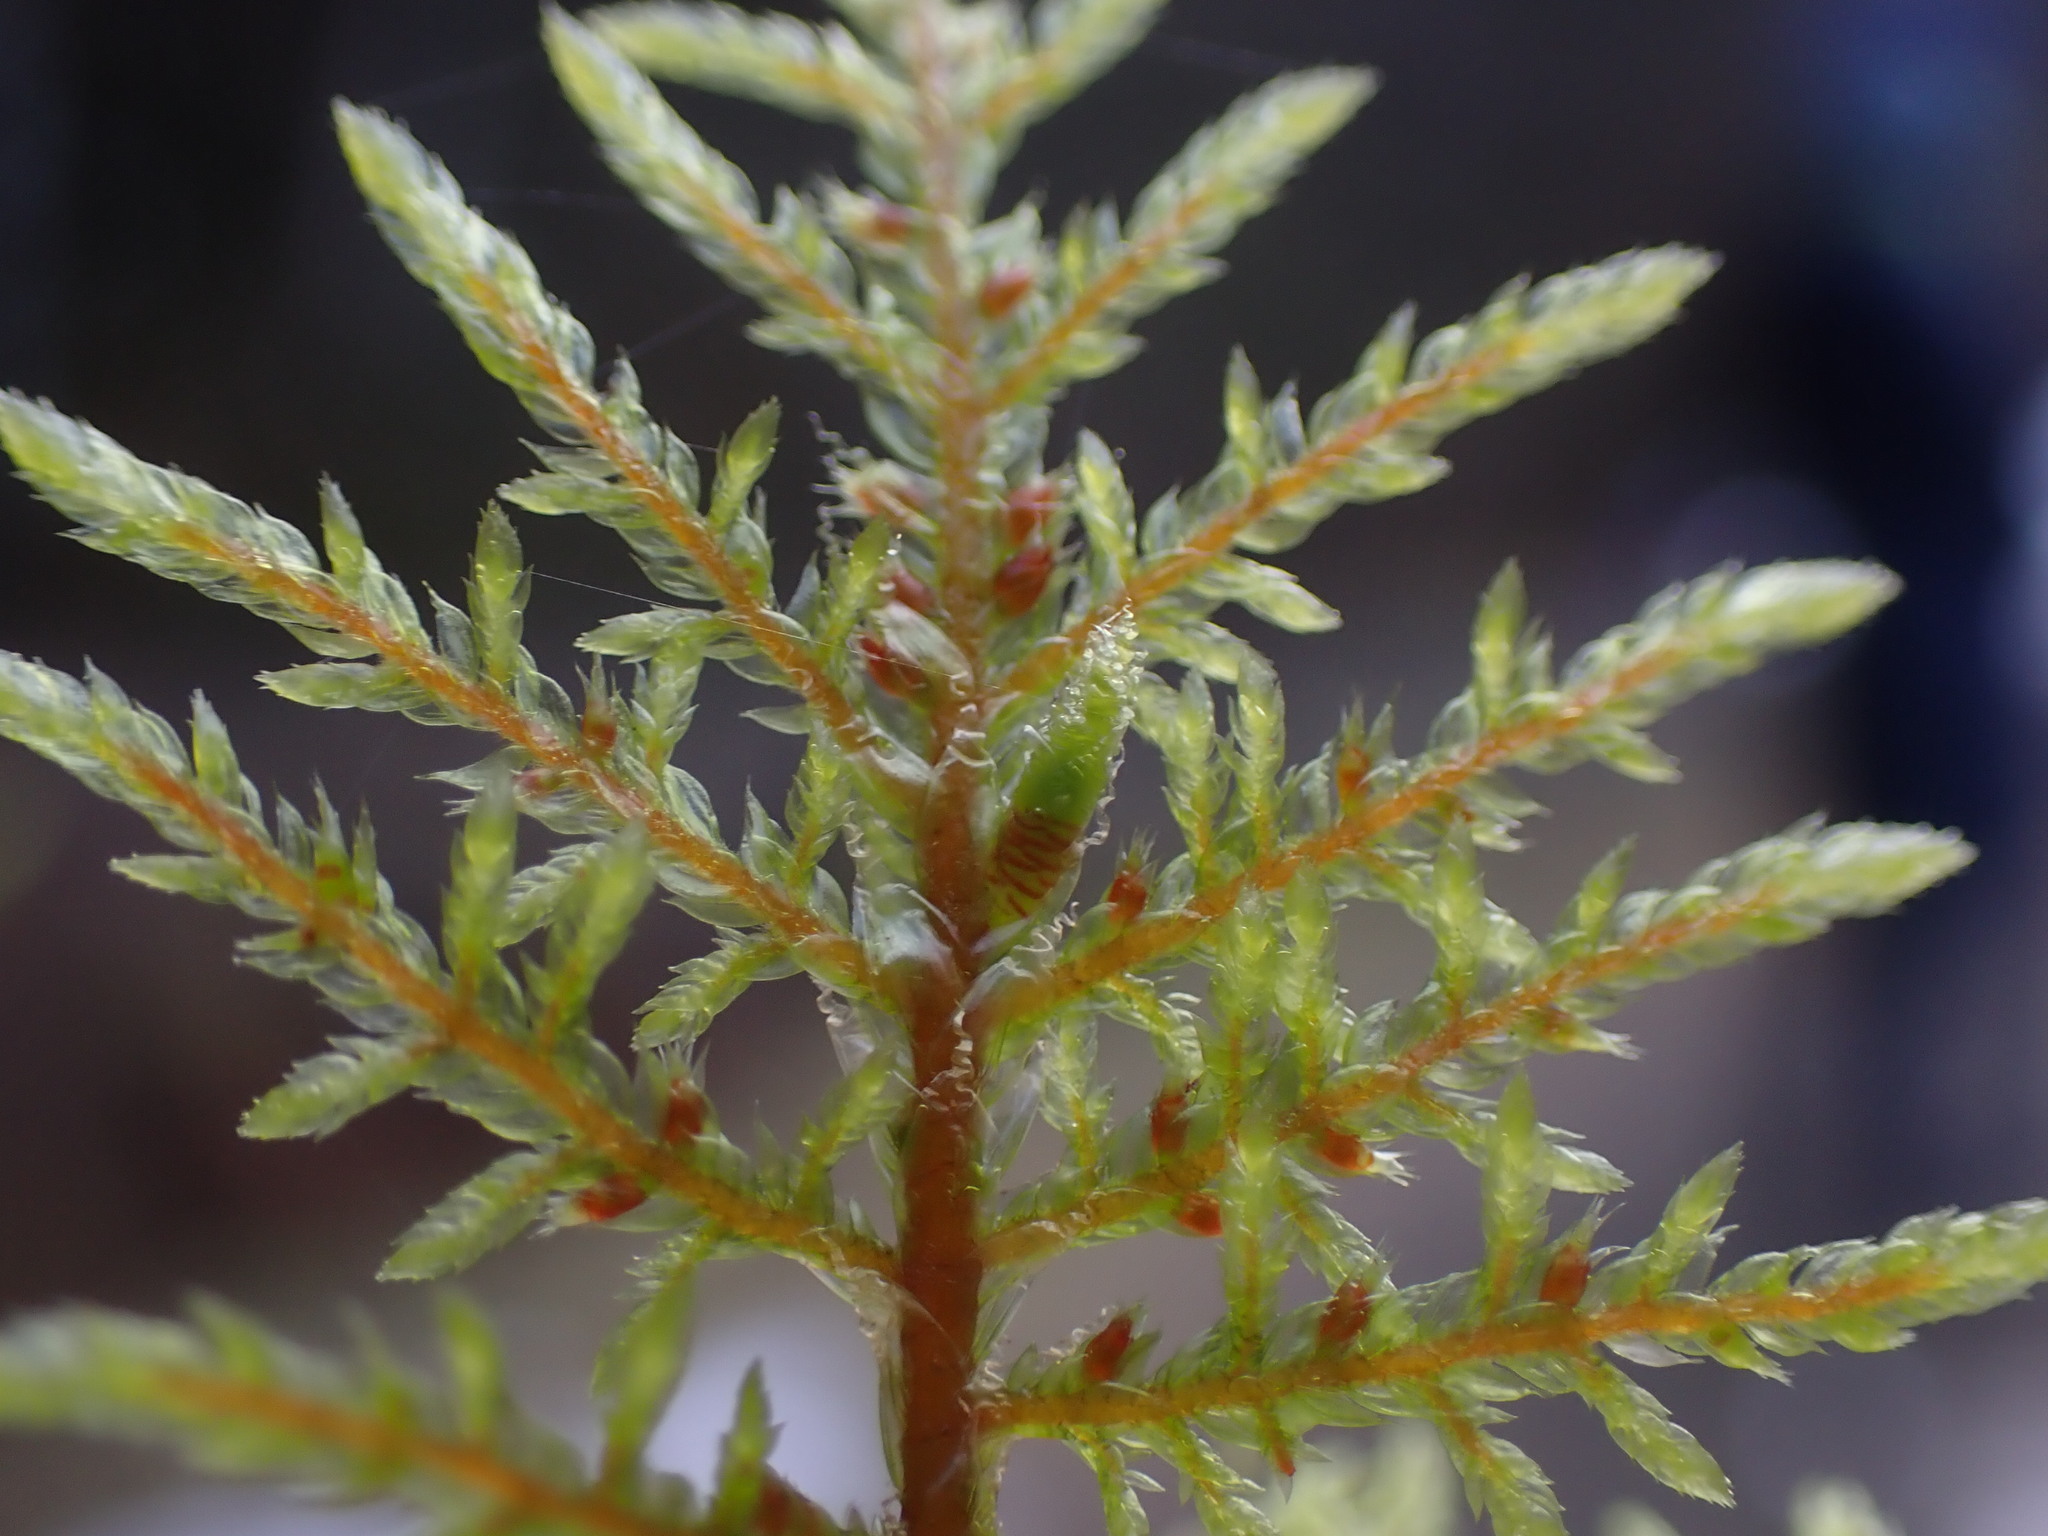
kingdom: Plantae
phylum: Bryophyta
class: Bryopsida
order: Hypnales
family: Hylocomiaceae
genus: Hylocomium
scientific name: Hylocomium splendens
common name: Stairstep moss
